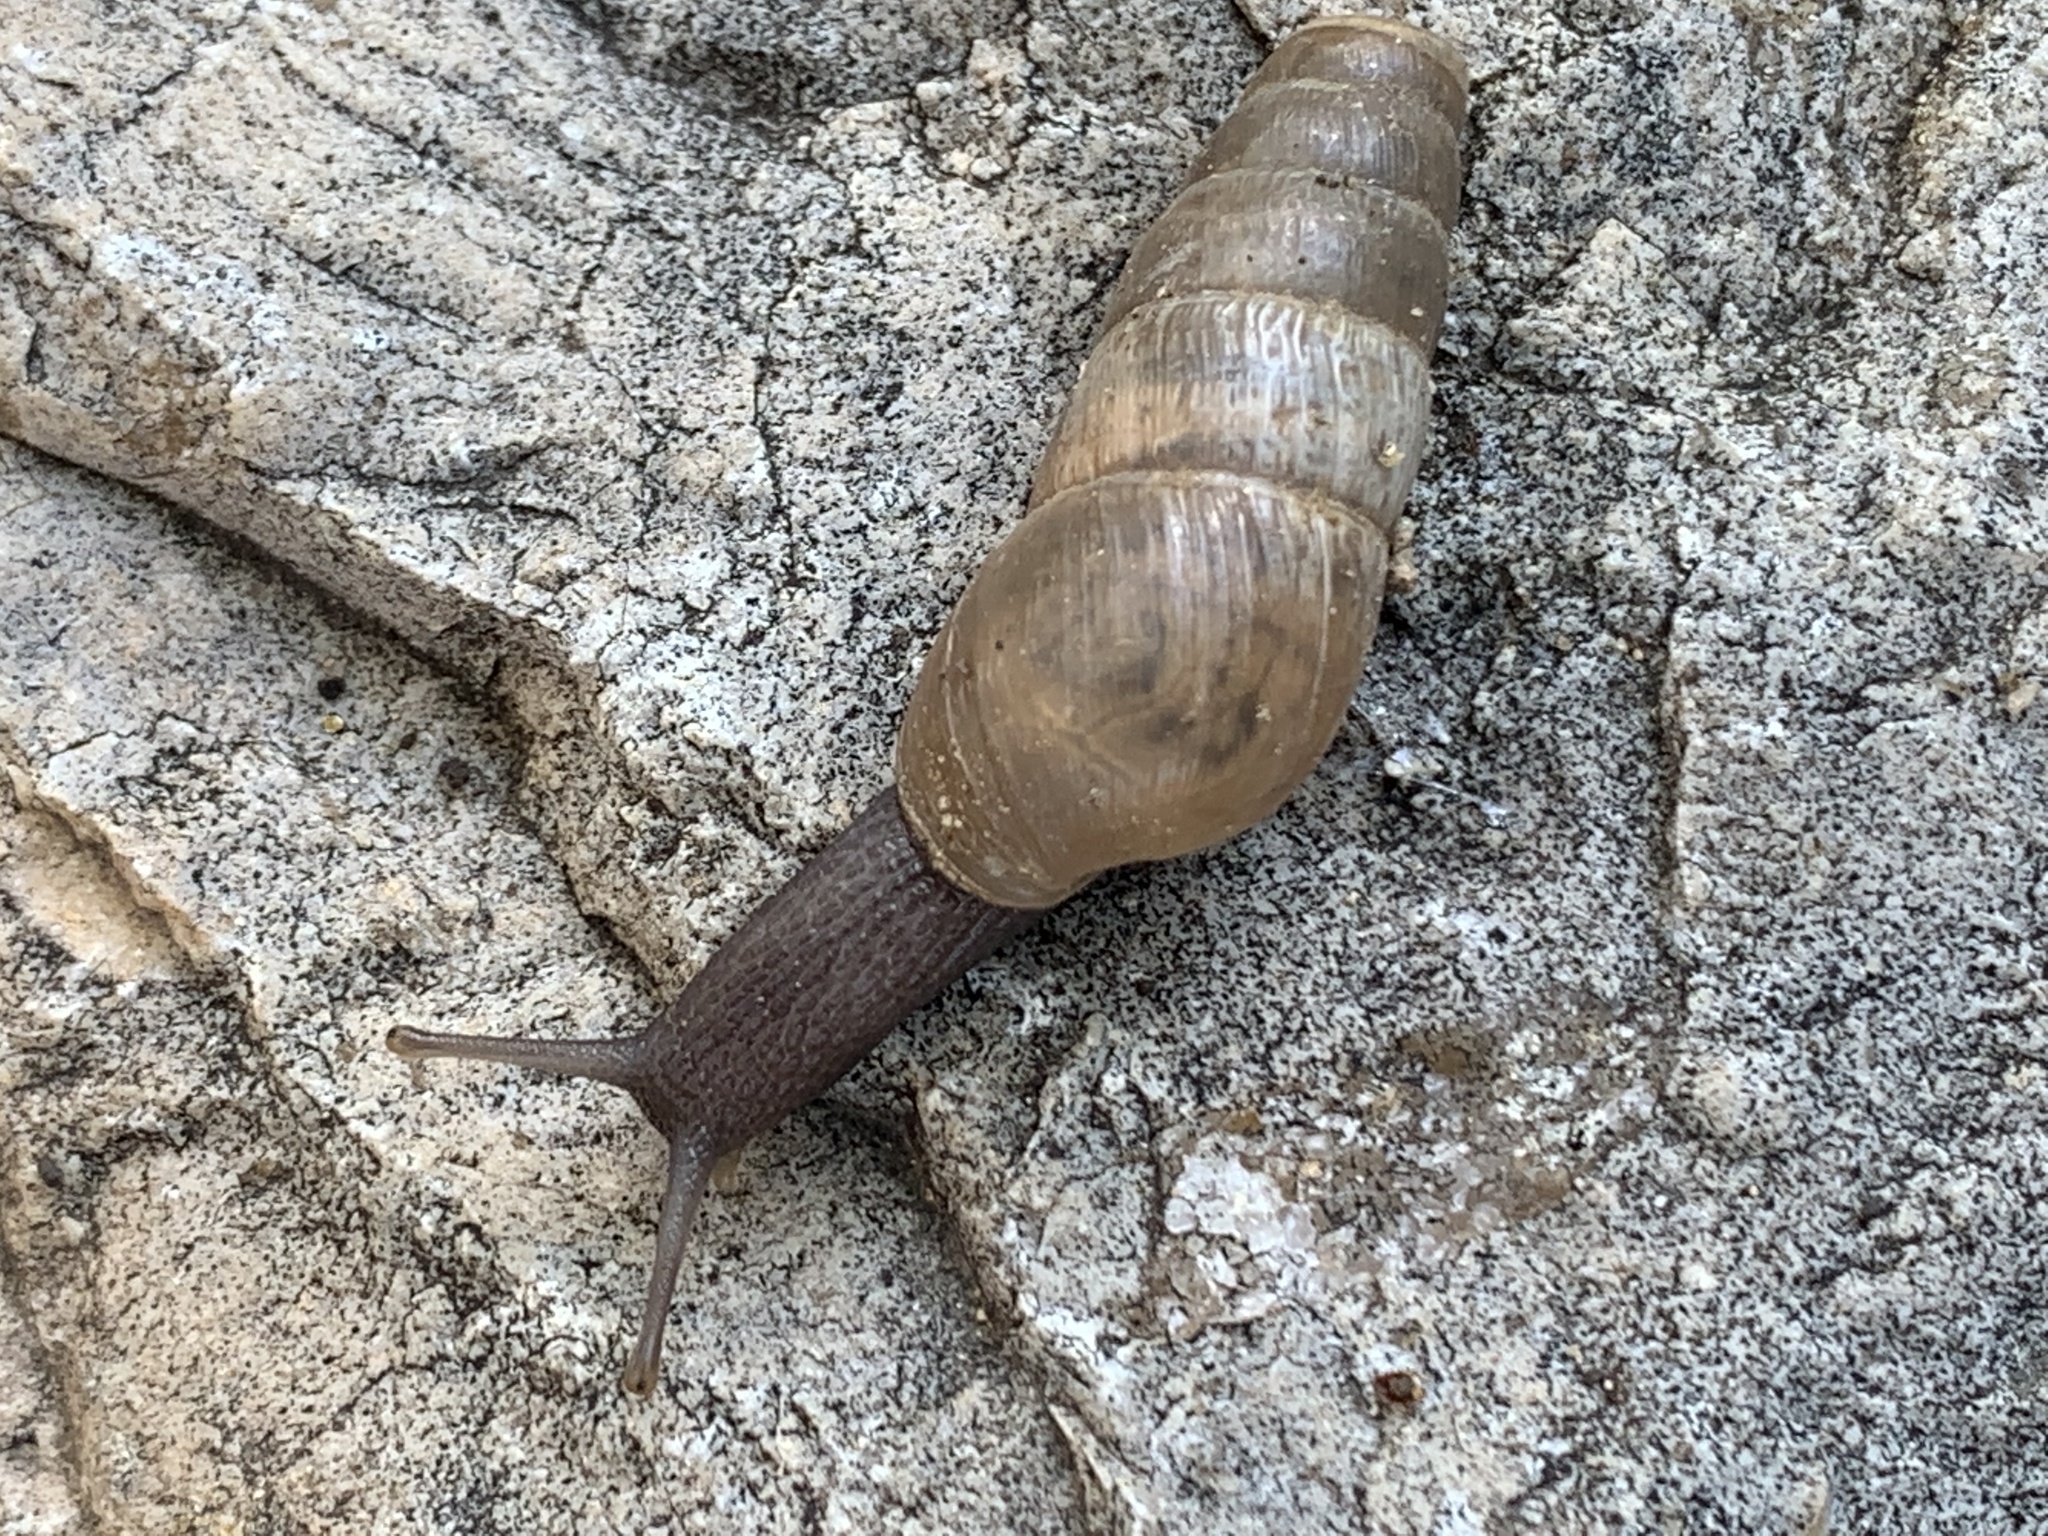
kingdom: Animalia
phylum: Mollusca
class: Gastropoda
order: Stylommatophora
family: Achatinidae
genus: Rumina
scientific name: Rumina decollata
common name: Decollate snail
